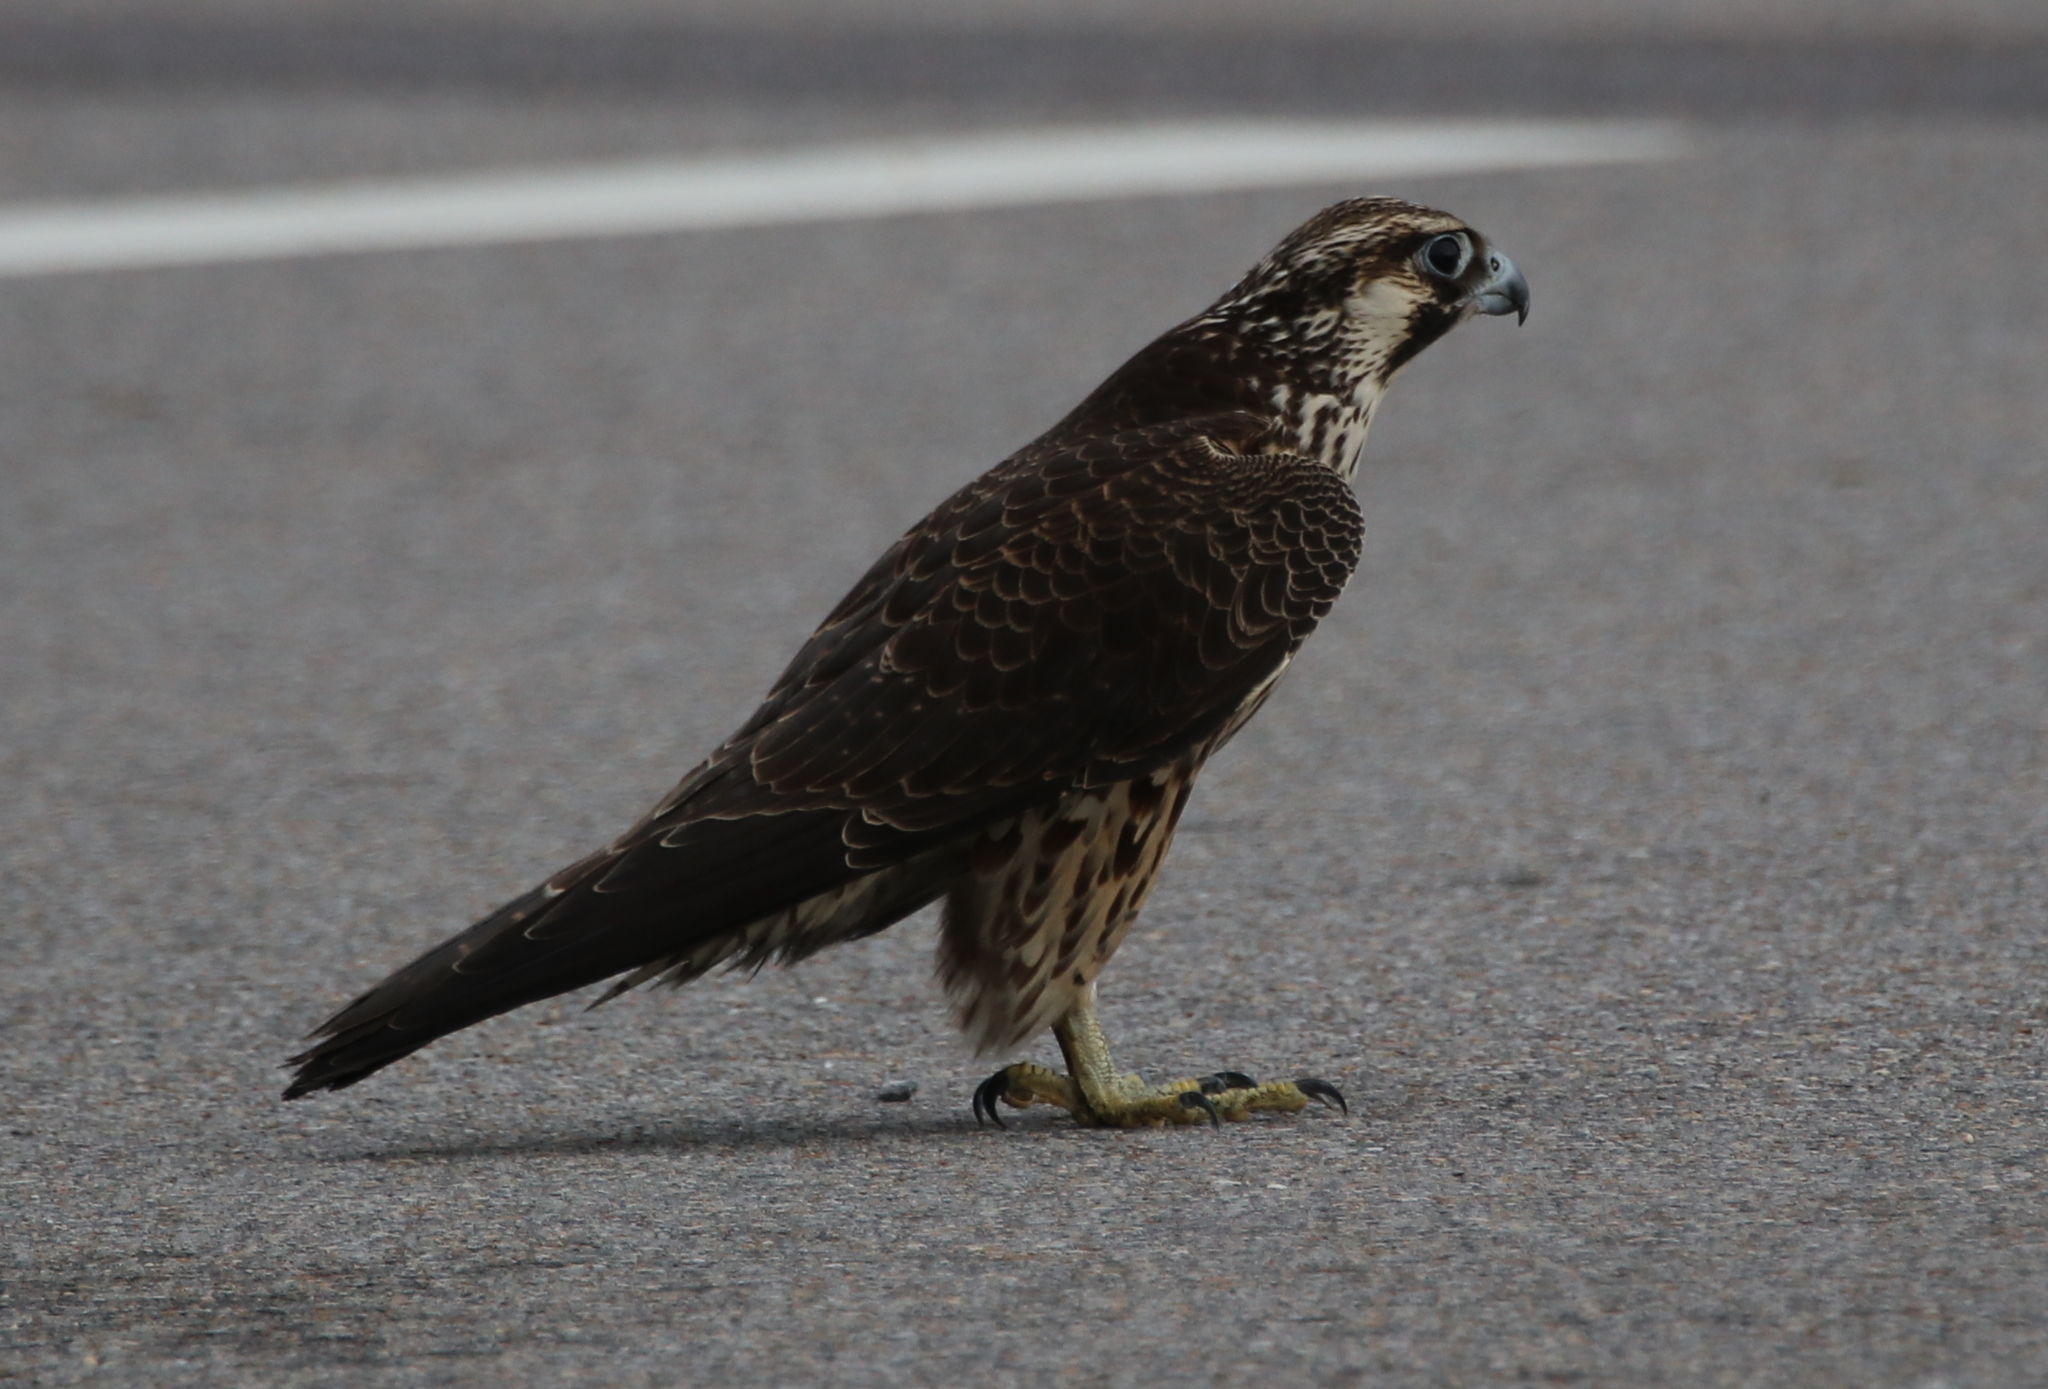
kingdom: Animalia
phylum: Chordata
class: Aves
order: Falconiformes
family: Falconidae
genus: Falco
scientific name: Falco peregrinus
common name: Peregrine falcon
